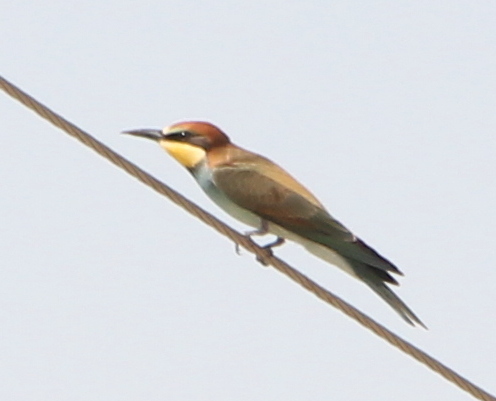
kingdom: Animalia
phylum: Chordata
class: Aves
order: Coraciiformes
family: Meropidae
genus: Merops
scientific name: Merops apiaster
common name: European bee-eater
